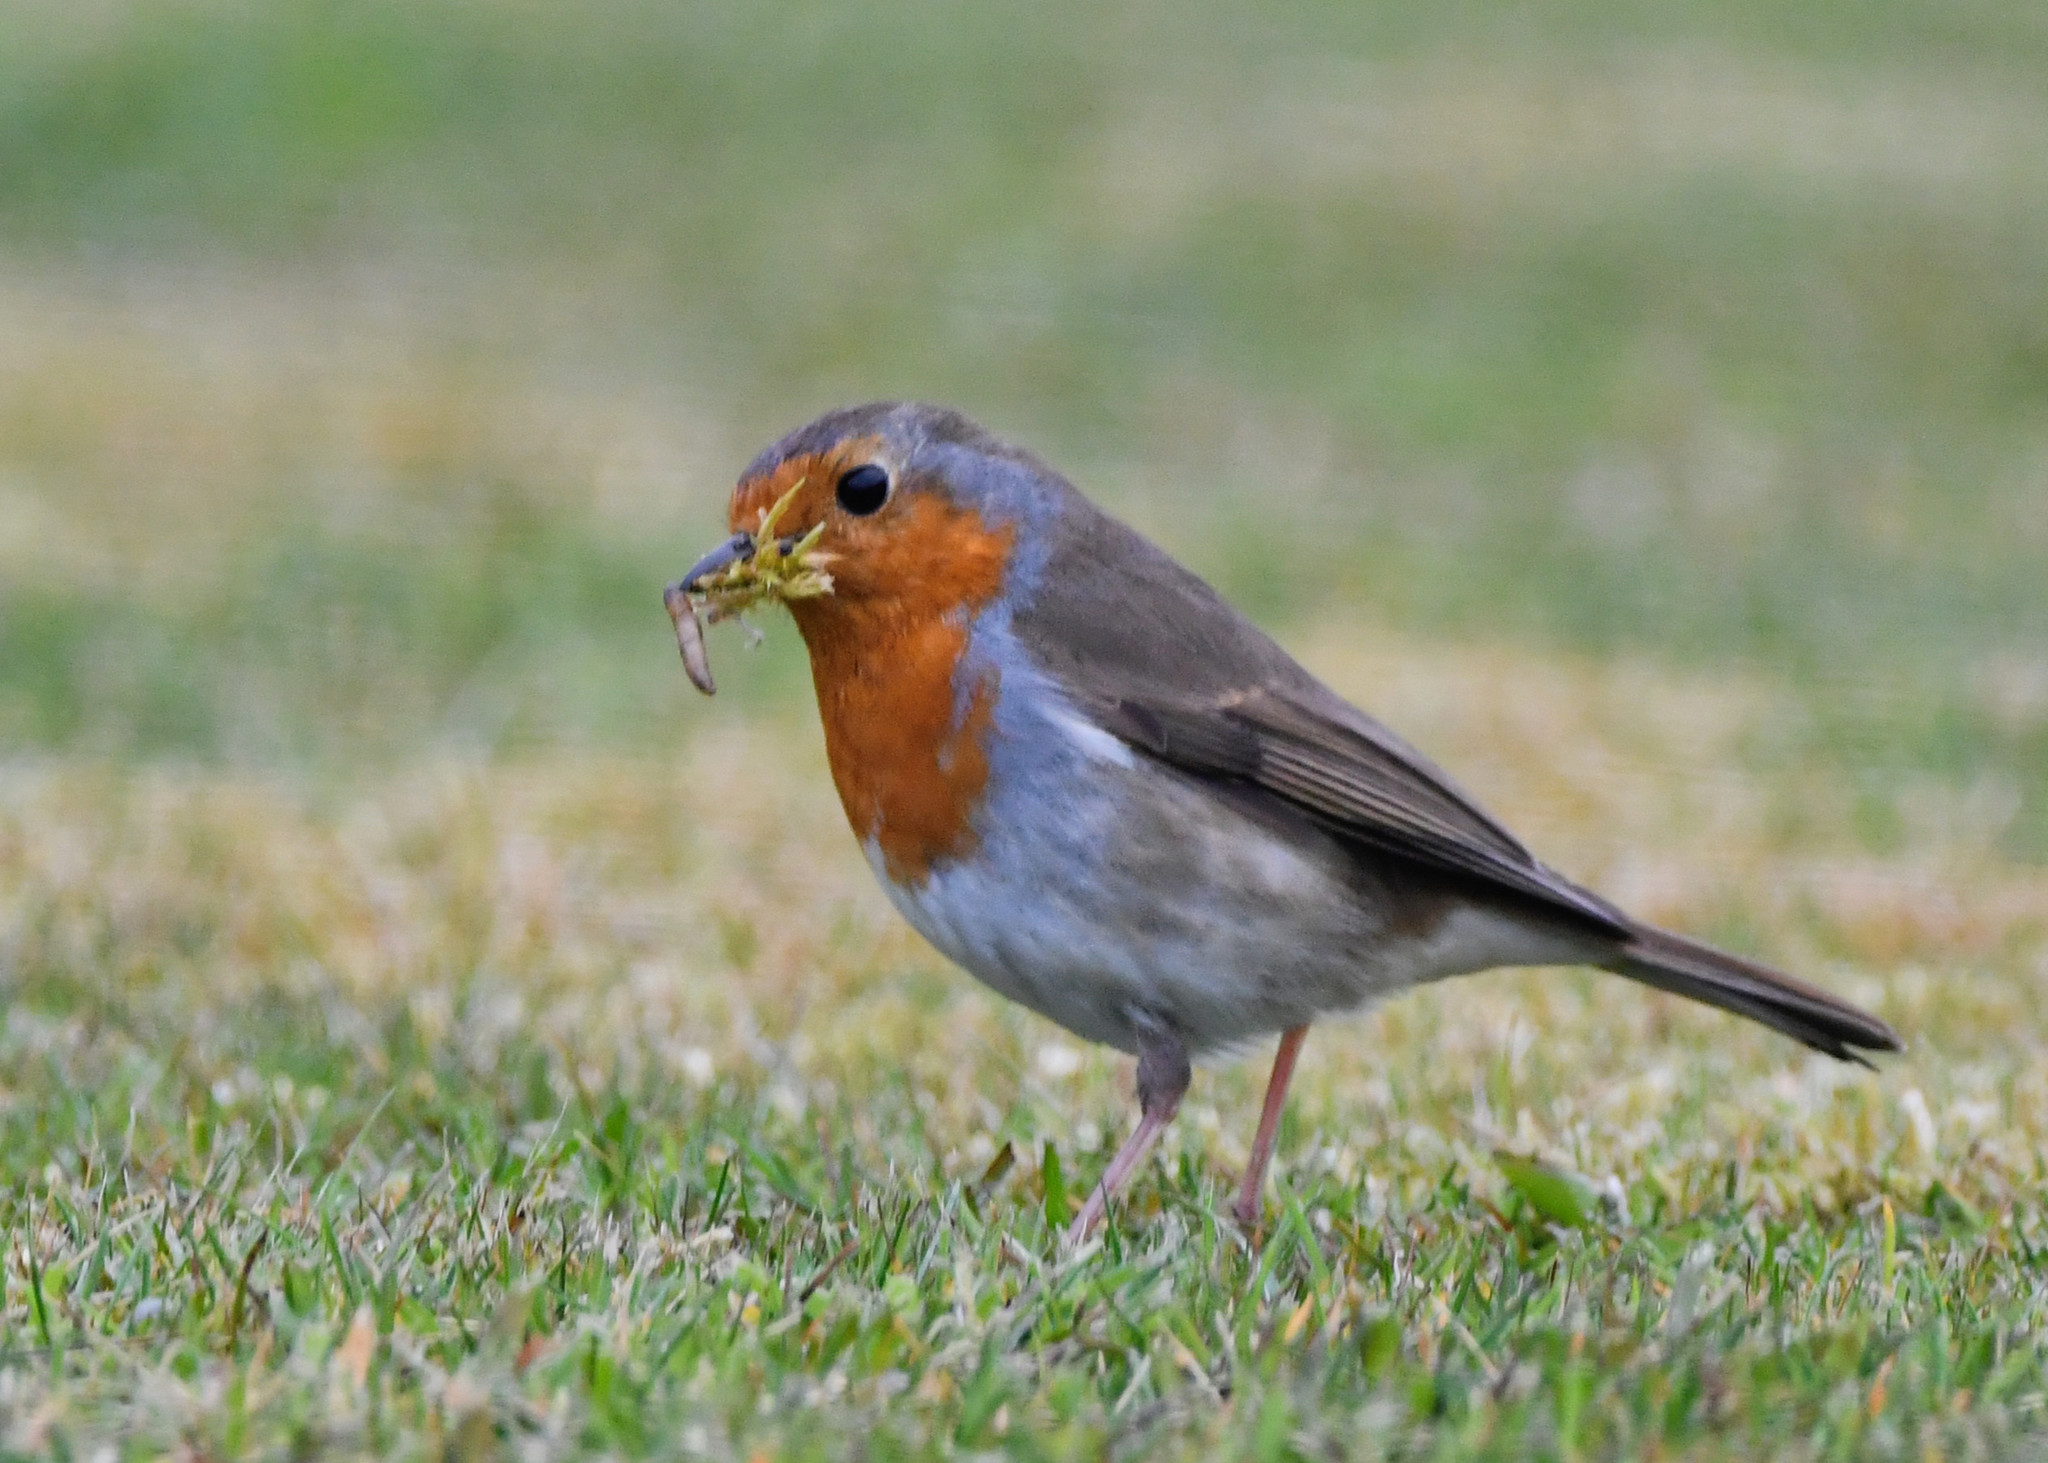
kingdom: Animalia
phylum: Chordata
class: Aves
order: Passeriformes
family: Muscicapidae
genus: Erithacus
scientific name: Erithacus rubecula
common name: European robin
